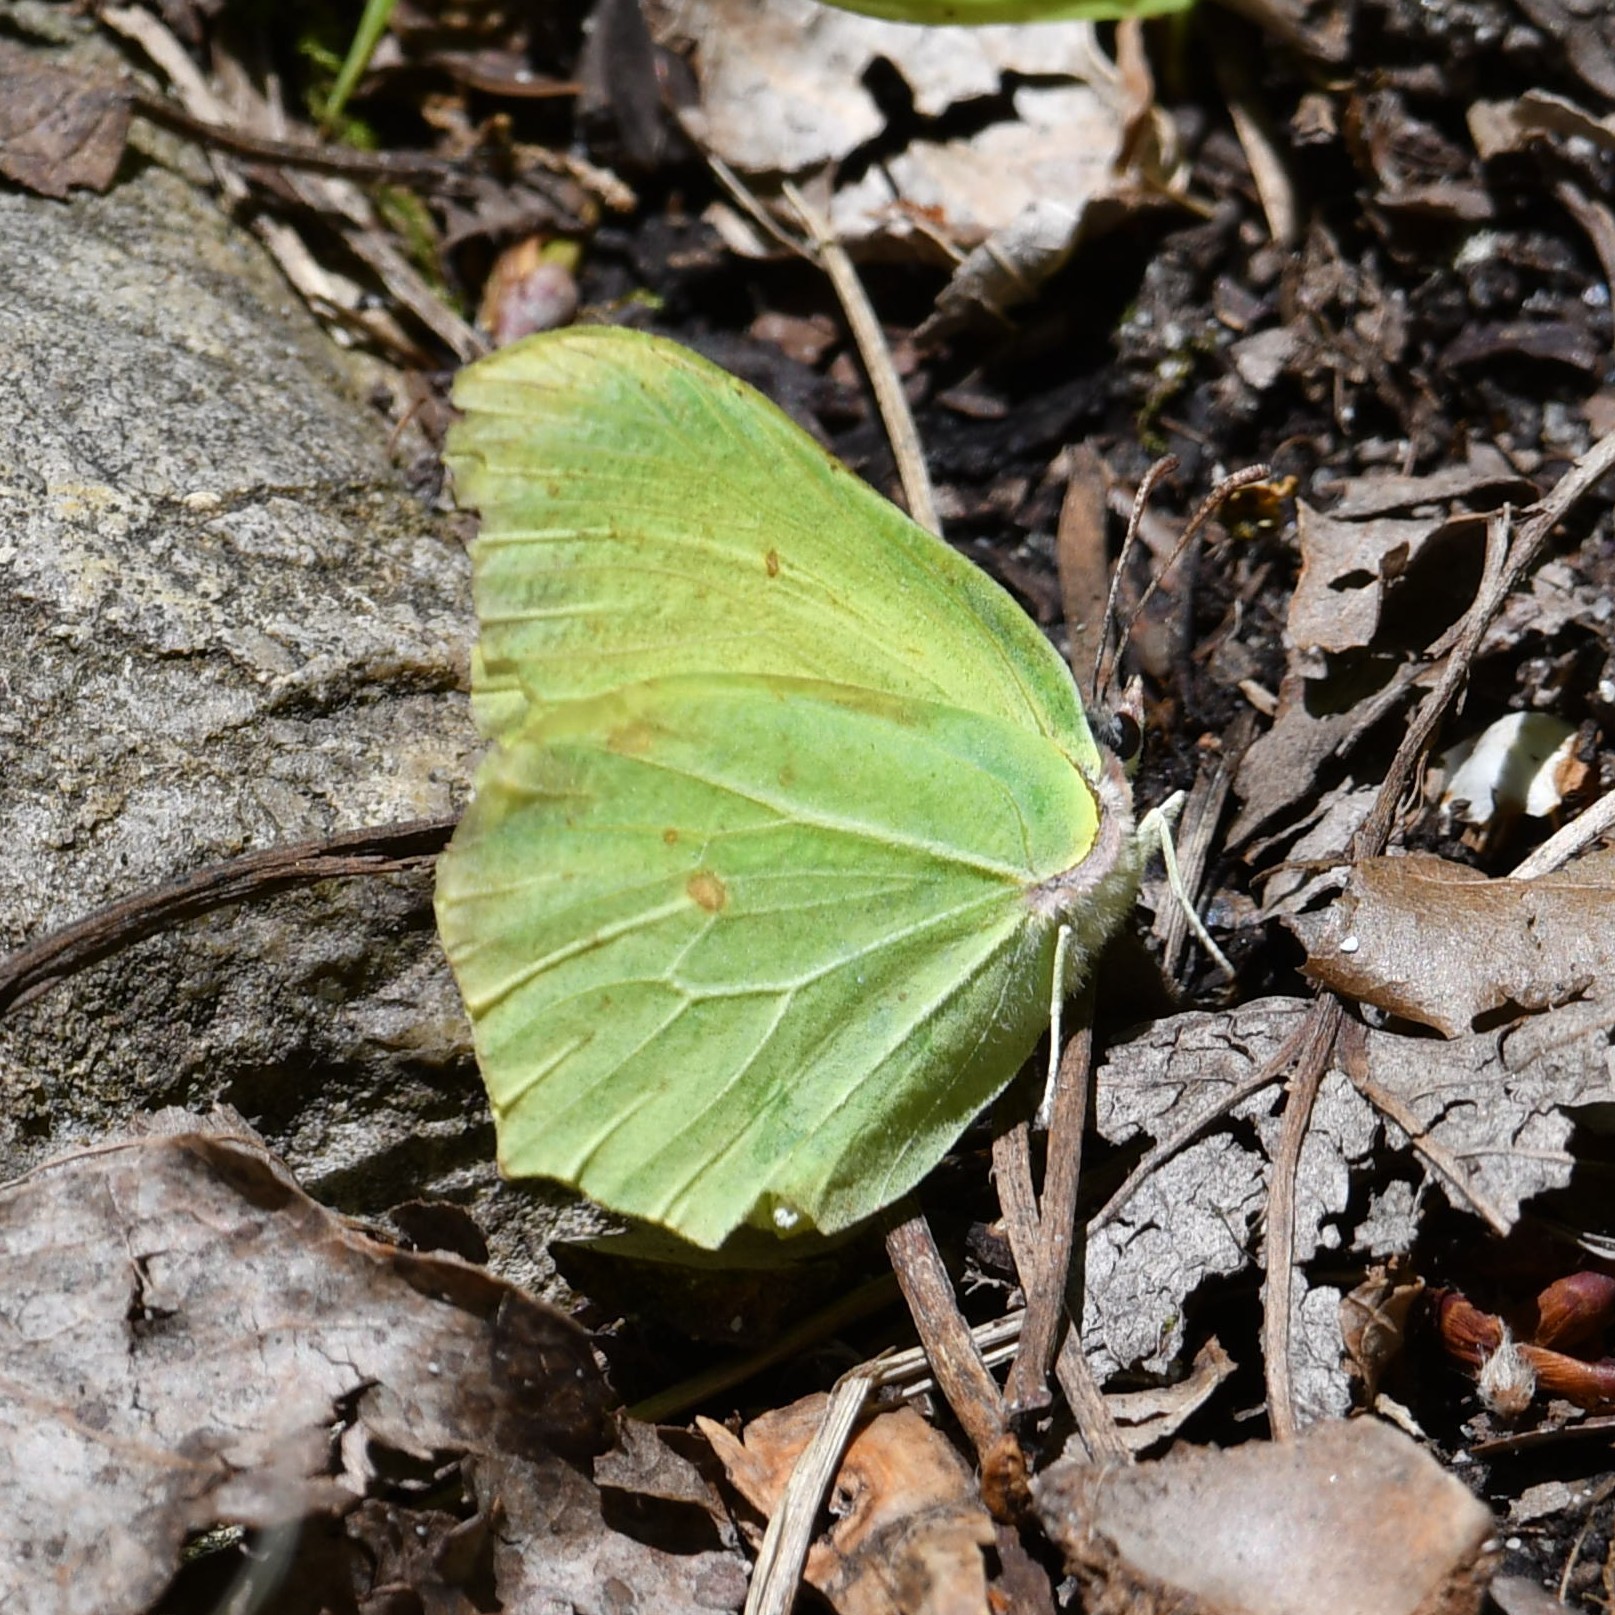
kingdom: Animalia
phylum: Arthropoda
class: Insecta
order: Lepidoptera
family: Pieridae
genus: Gonepteryx
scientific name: Gonepteryx rhamni
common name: Brimstone
